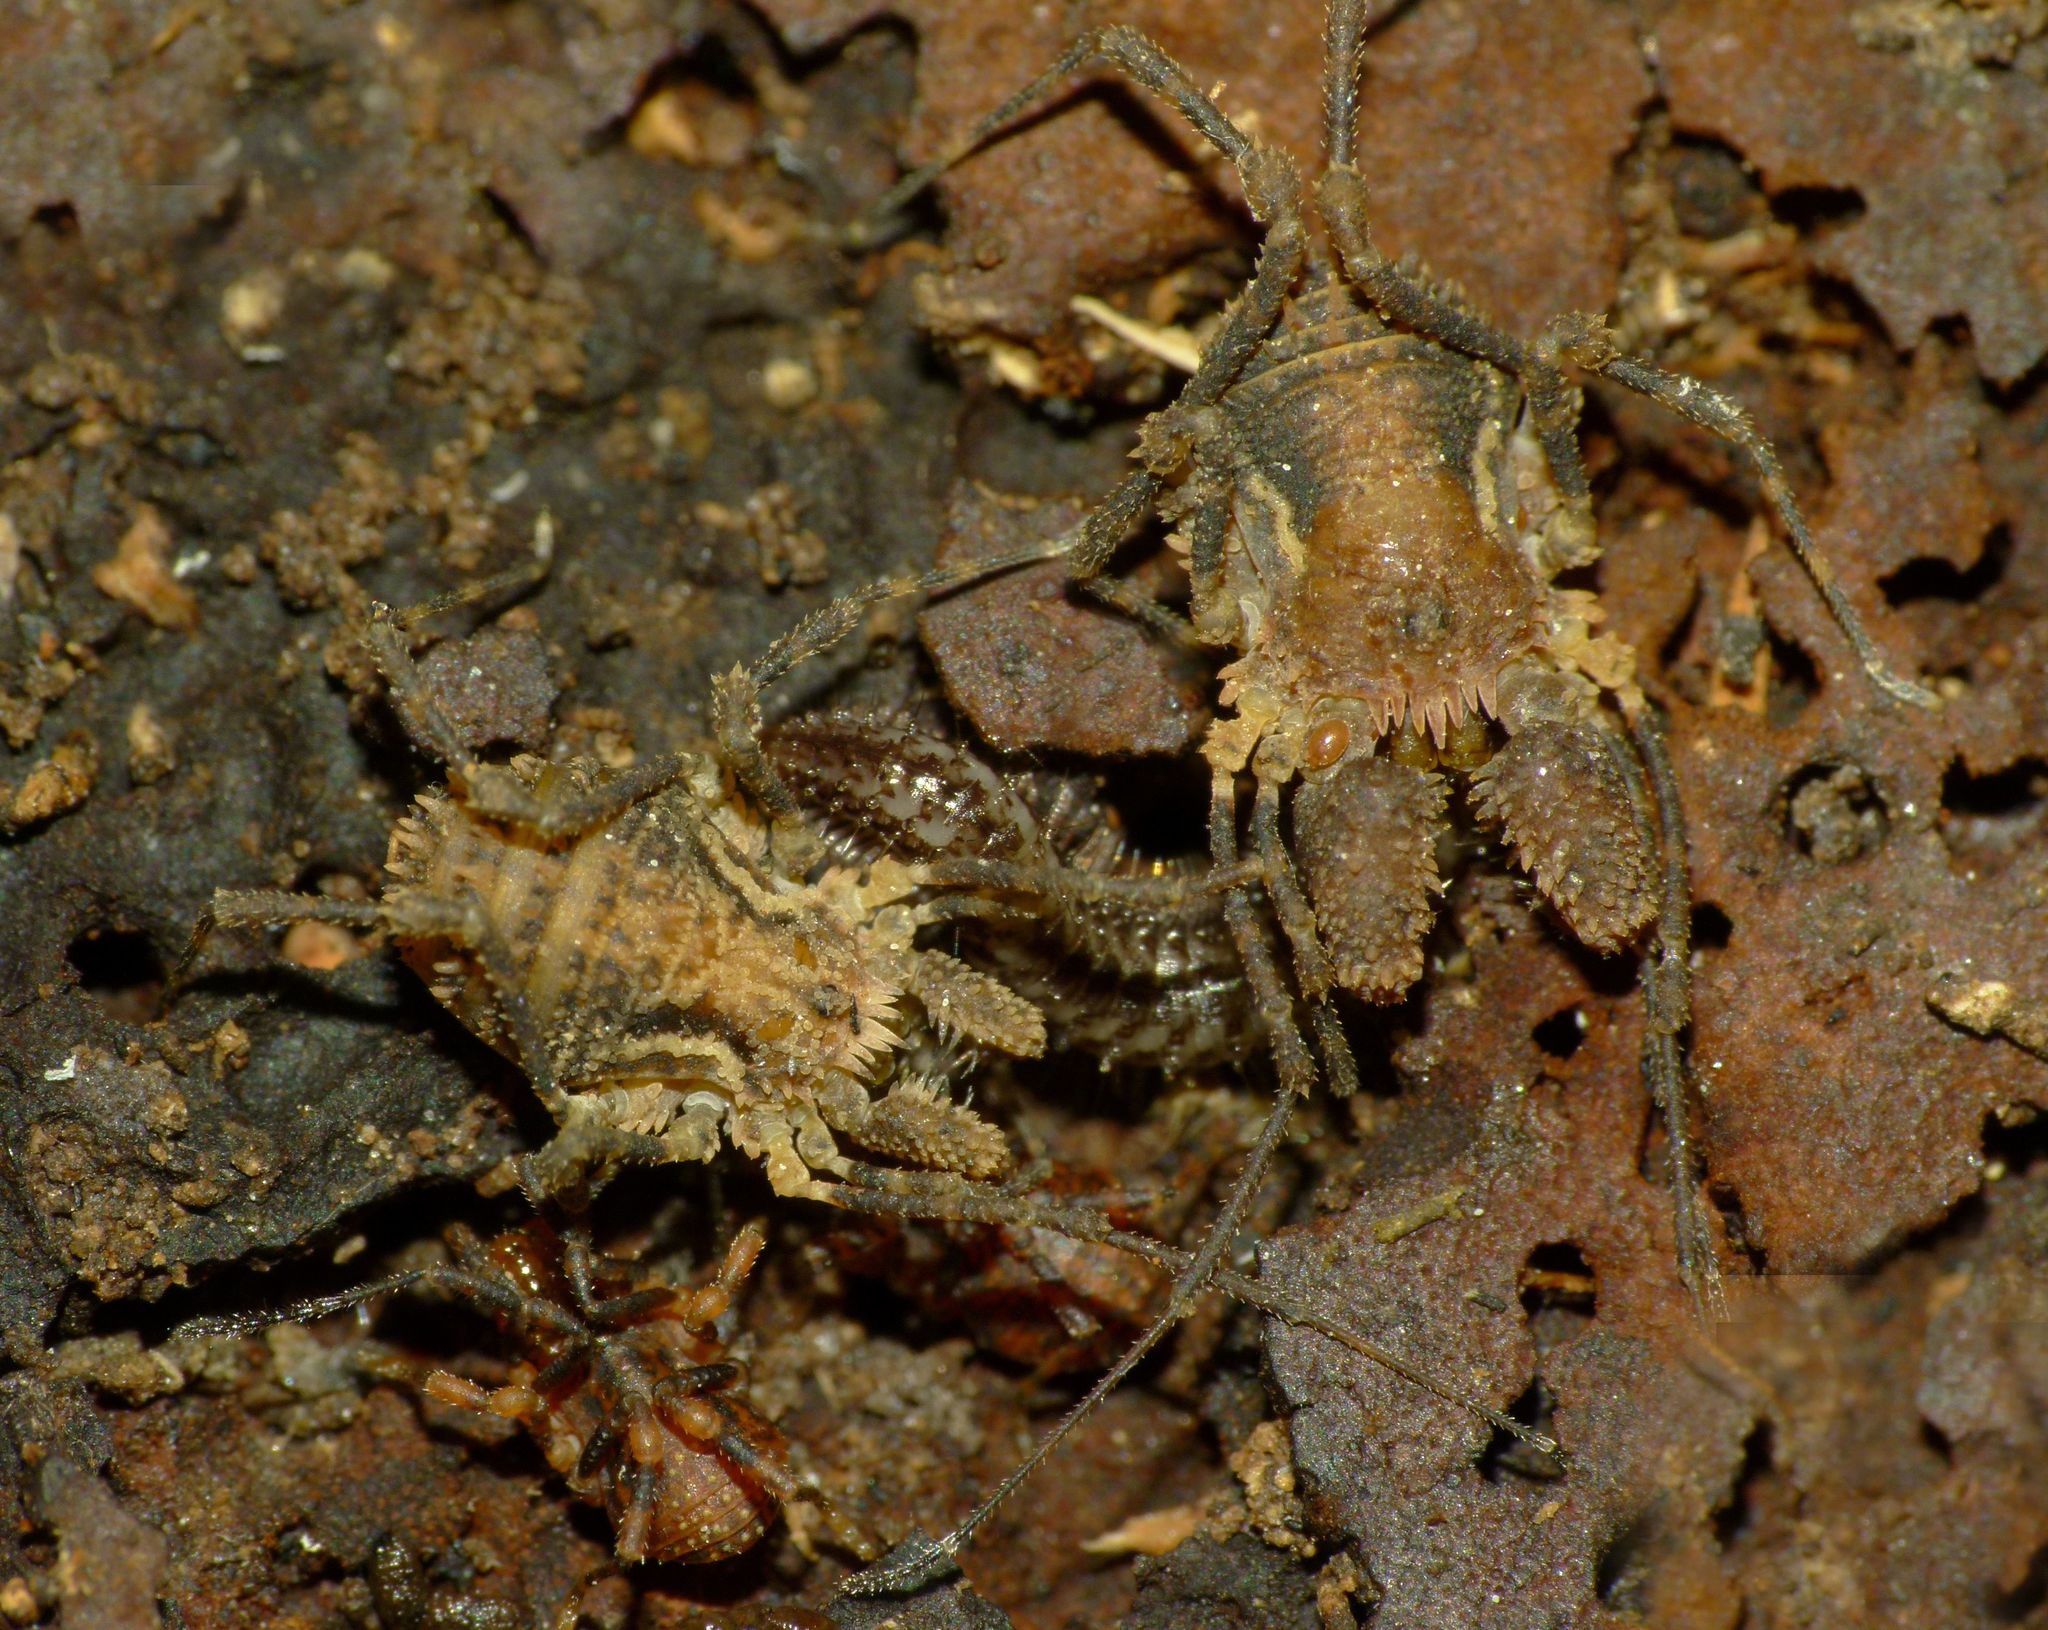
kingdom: Animalia
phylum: Arthropoda
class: Arachnida
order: Opiliones
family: Triaenonychidae
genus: Algidia
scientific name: Algidia cuspidata
